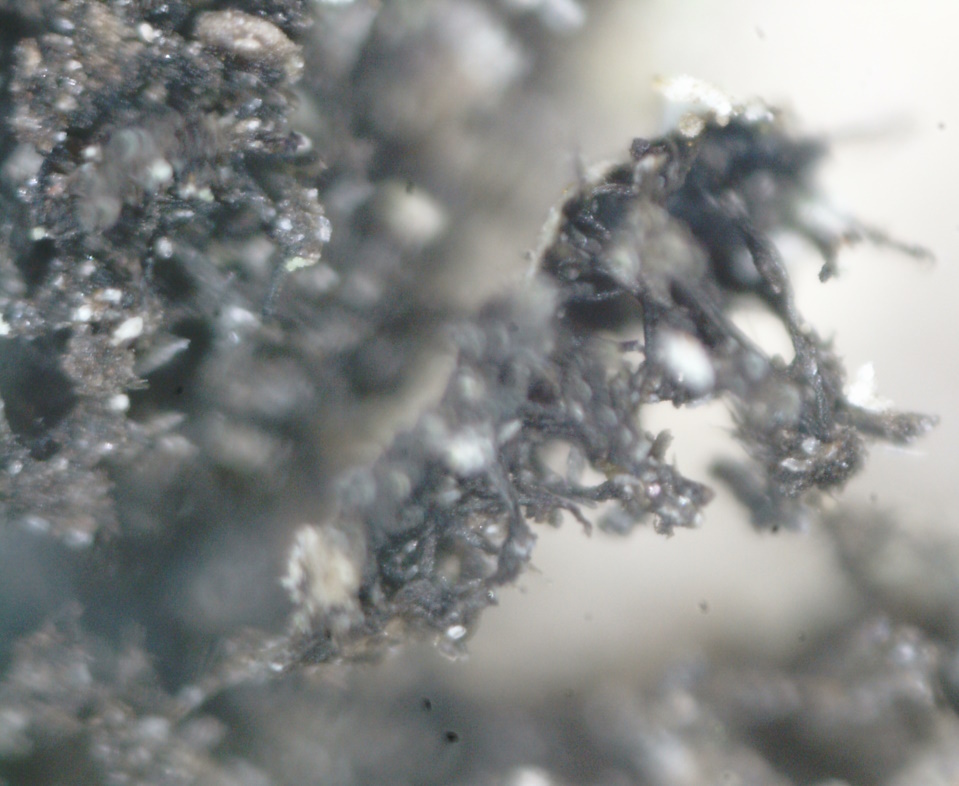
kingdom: Fungi
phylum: Ascomycota
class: Lecanoromycetes
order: Caliciales
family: Physciaceae
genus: Physconia
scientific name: Physconia enteroxantha
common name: Yellow-edged frost lichen
